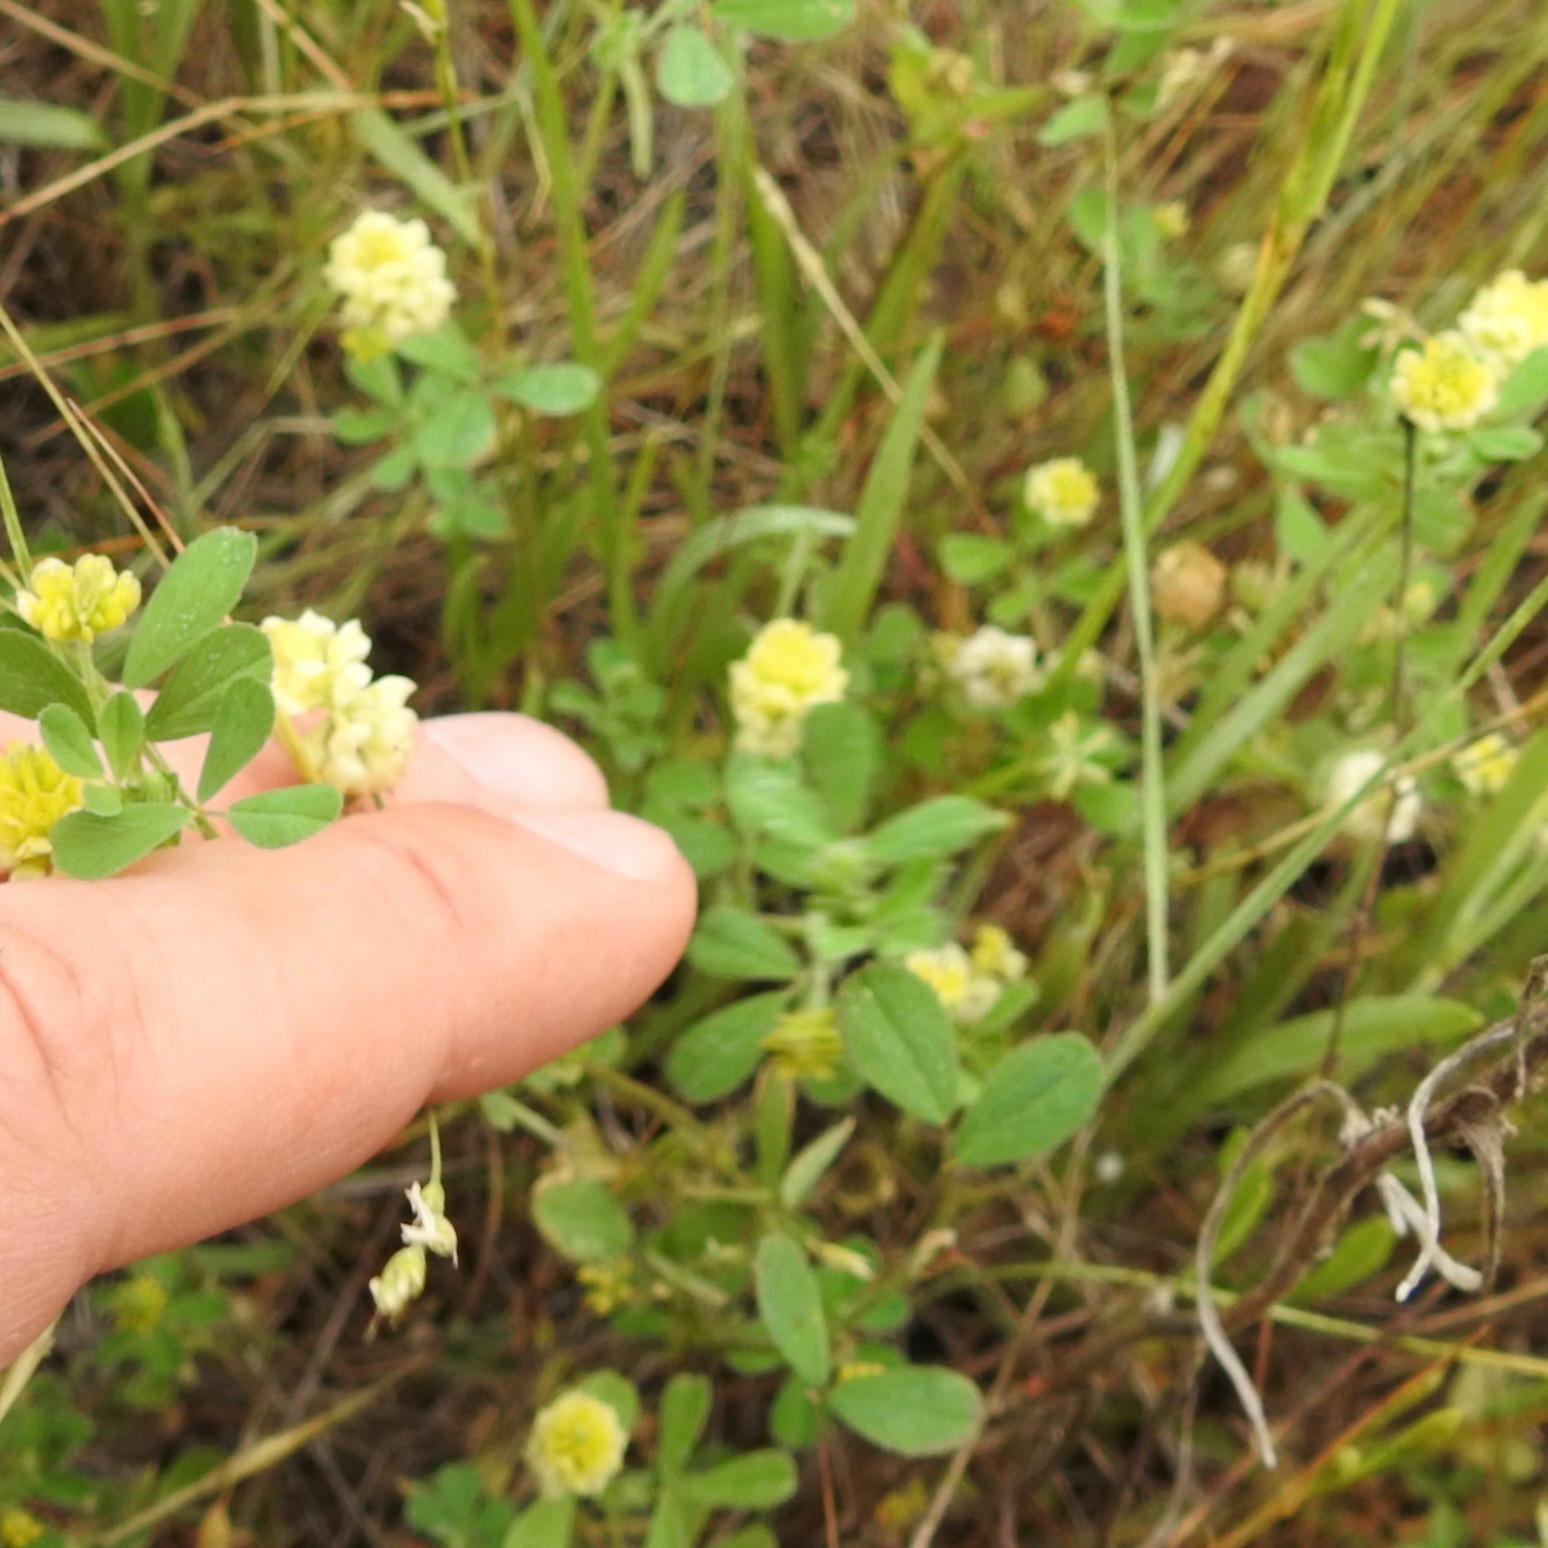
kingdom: Plantae
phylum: Tracheophyta
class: Magnoliopsida
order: Fabales
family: Fabaceae
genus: Trifolium
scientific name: Trifolium campestre
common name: Field clover
